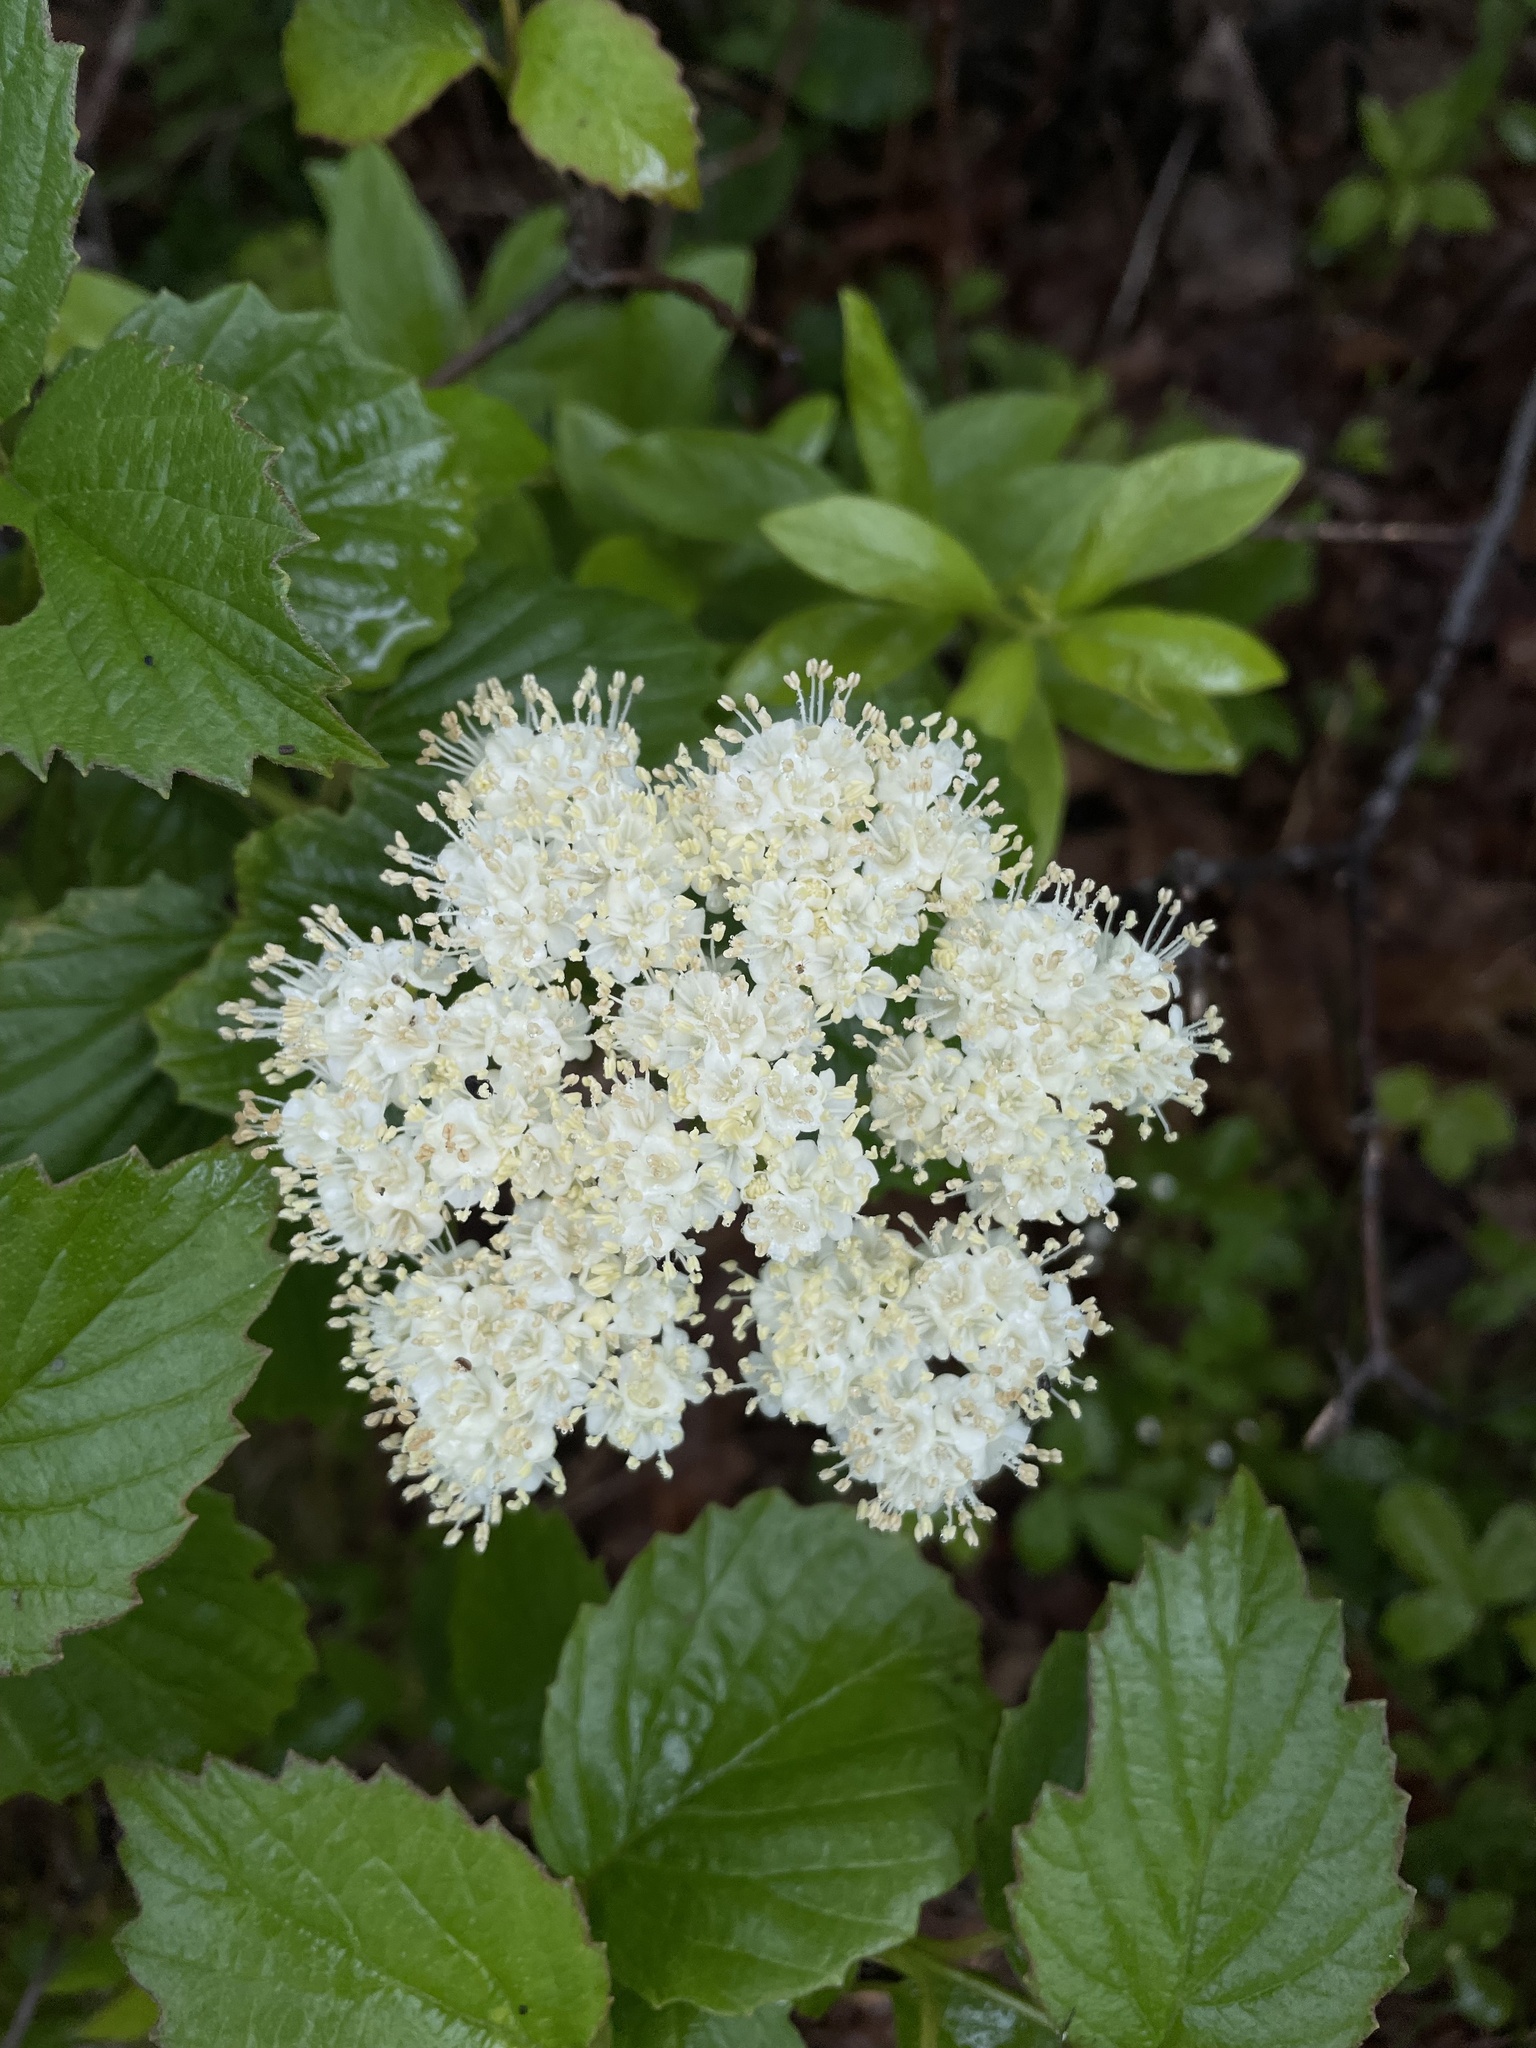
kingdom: Plantae
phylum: Tracheophyta
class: Magnoliopsida
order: Dipsacales
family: Viburnaceae
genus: Viburnum
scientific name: Viburnum dentatum
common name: Arrow-wood
